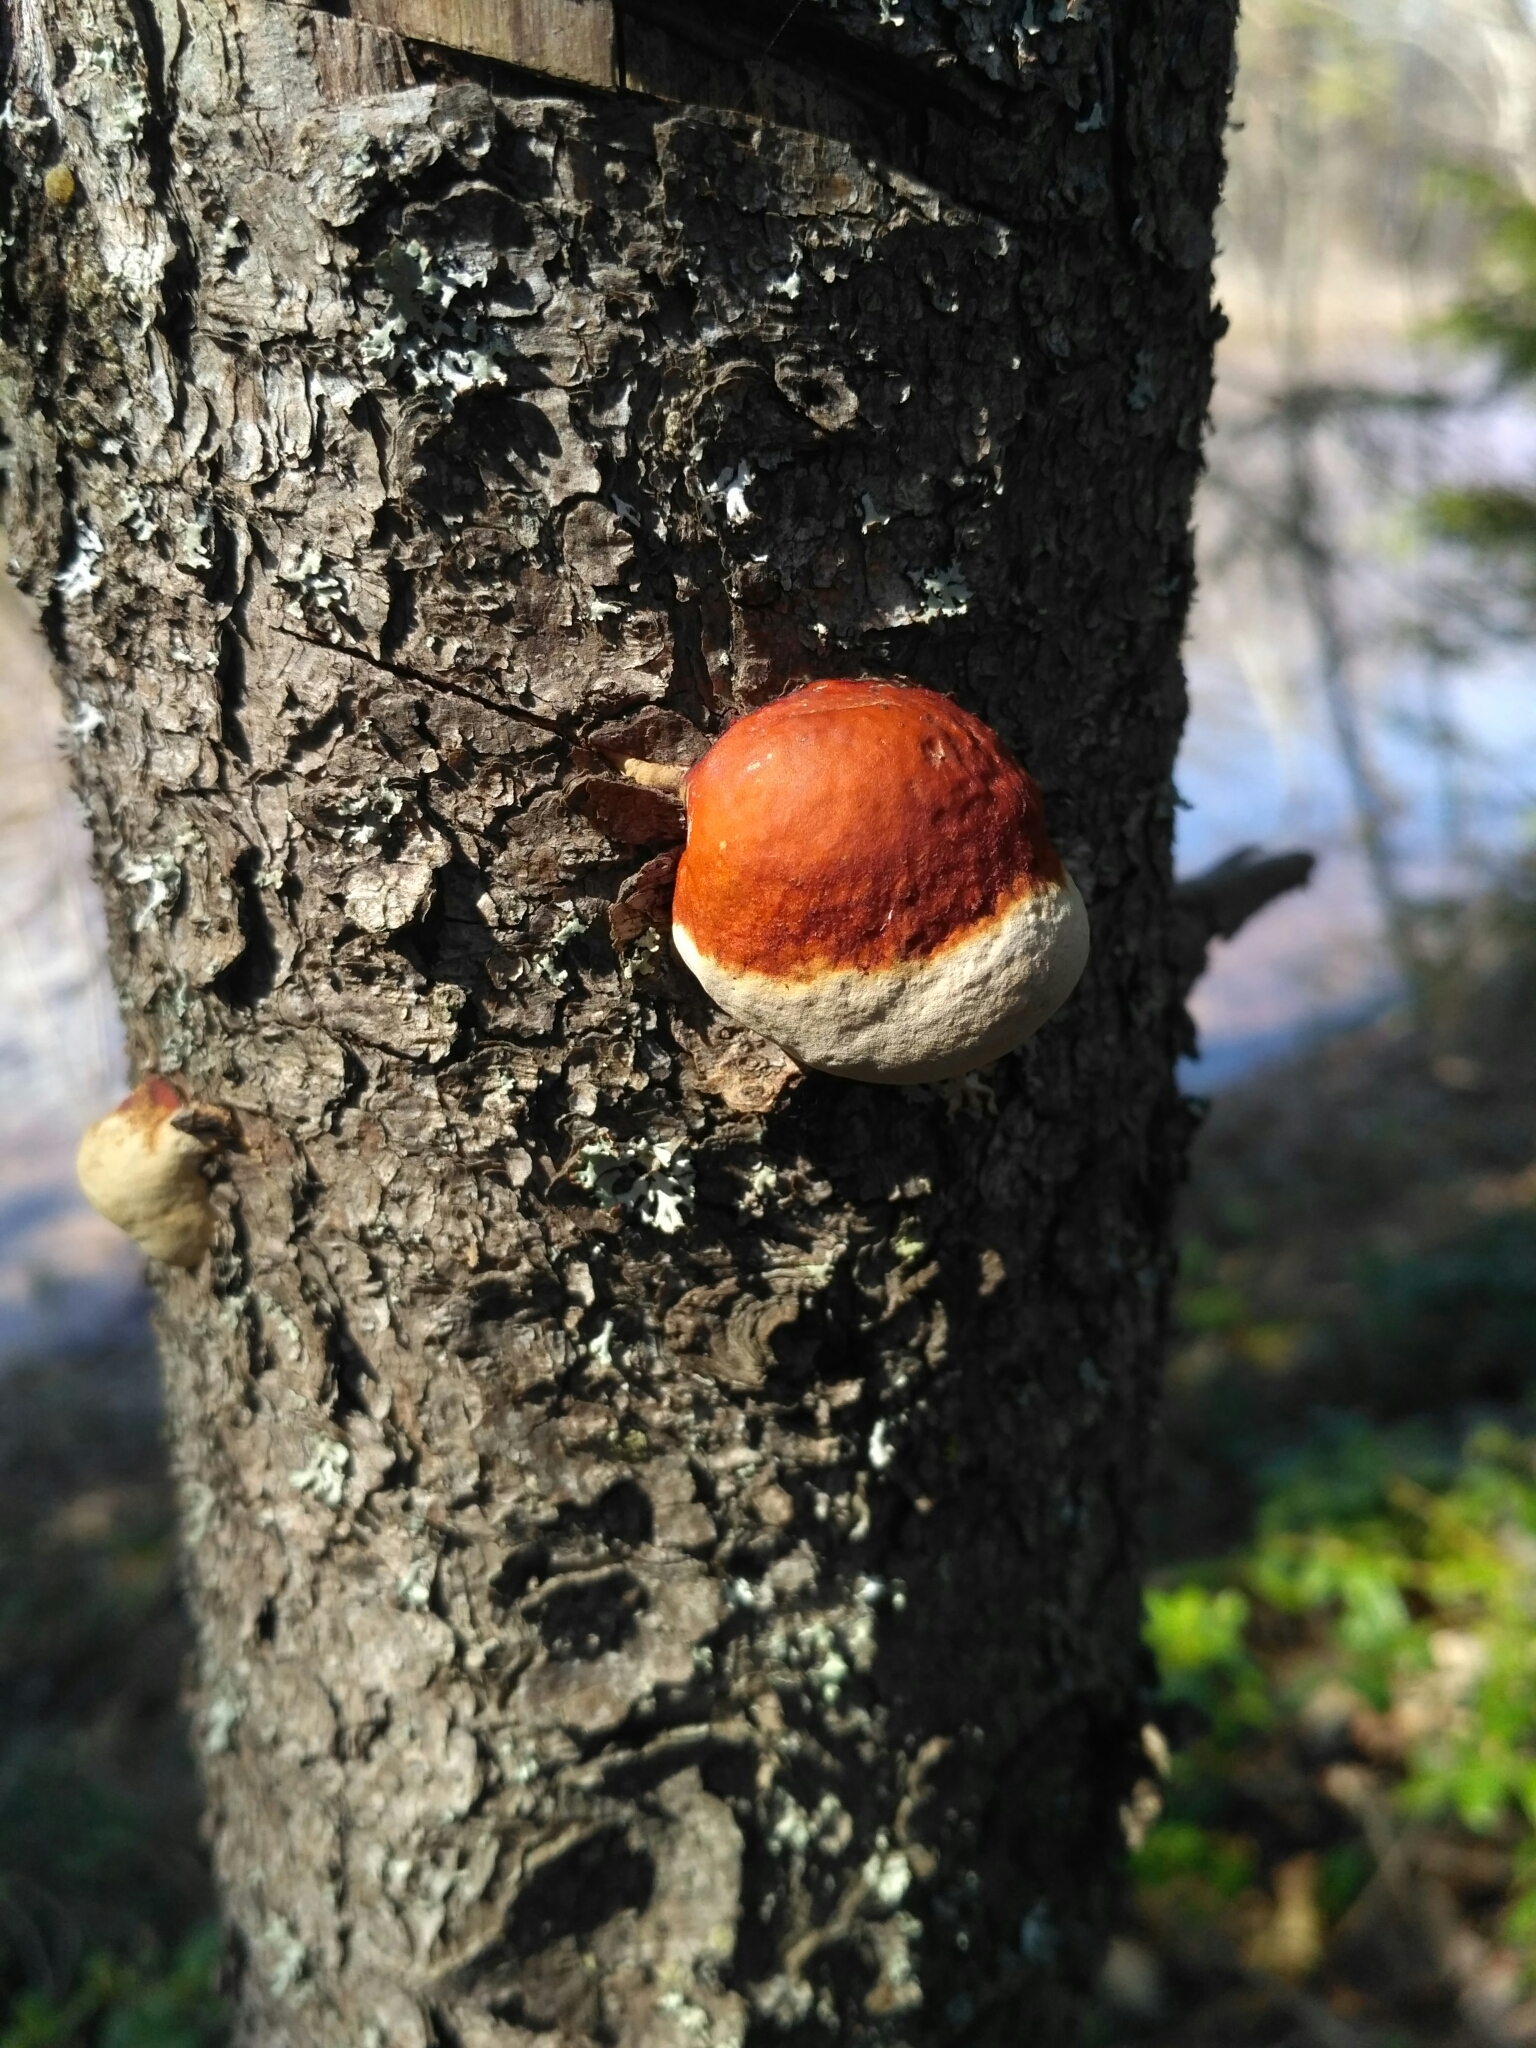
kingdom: Fungi
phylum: Basidiomycota
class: Agaricomycetes
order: Polyporales
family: Fomitopsidaceae
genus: Fomitopsis
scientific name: Fomitopsis pinicola
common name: Red-belted bracket
